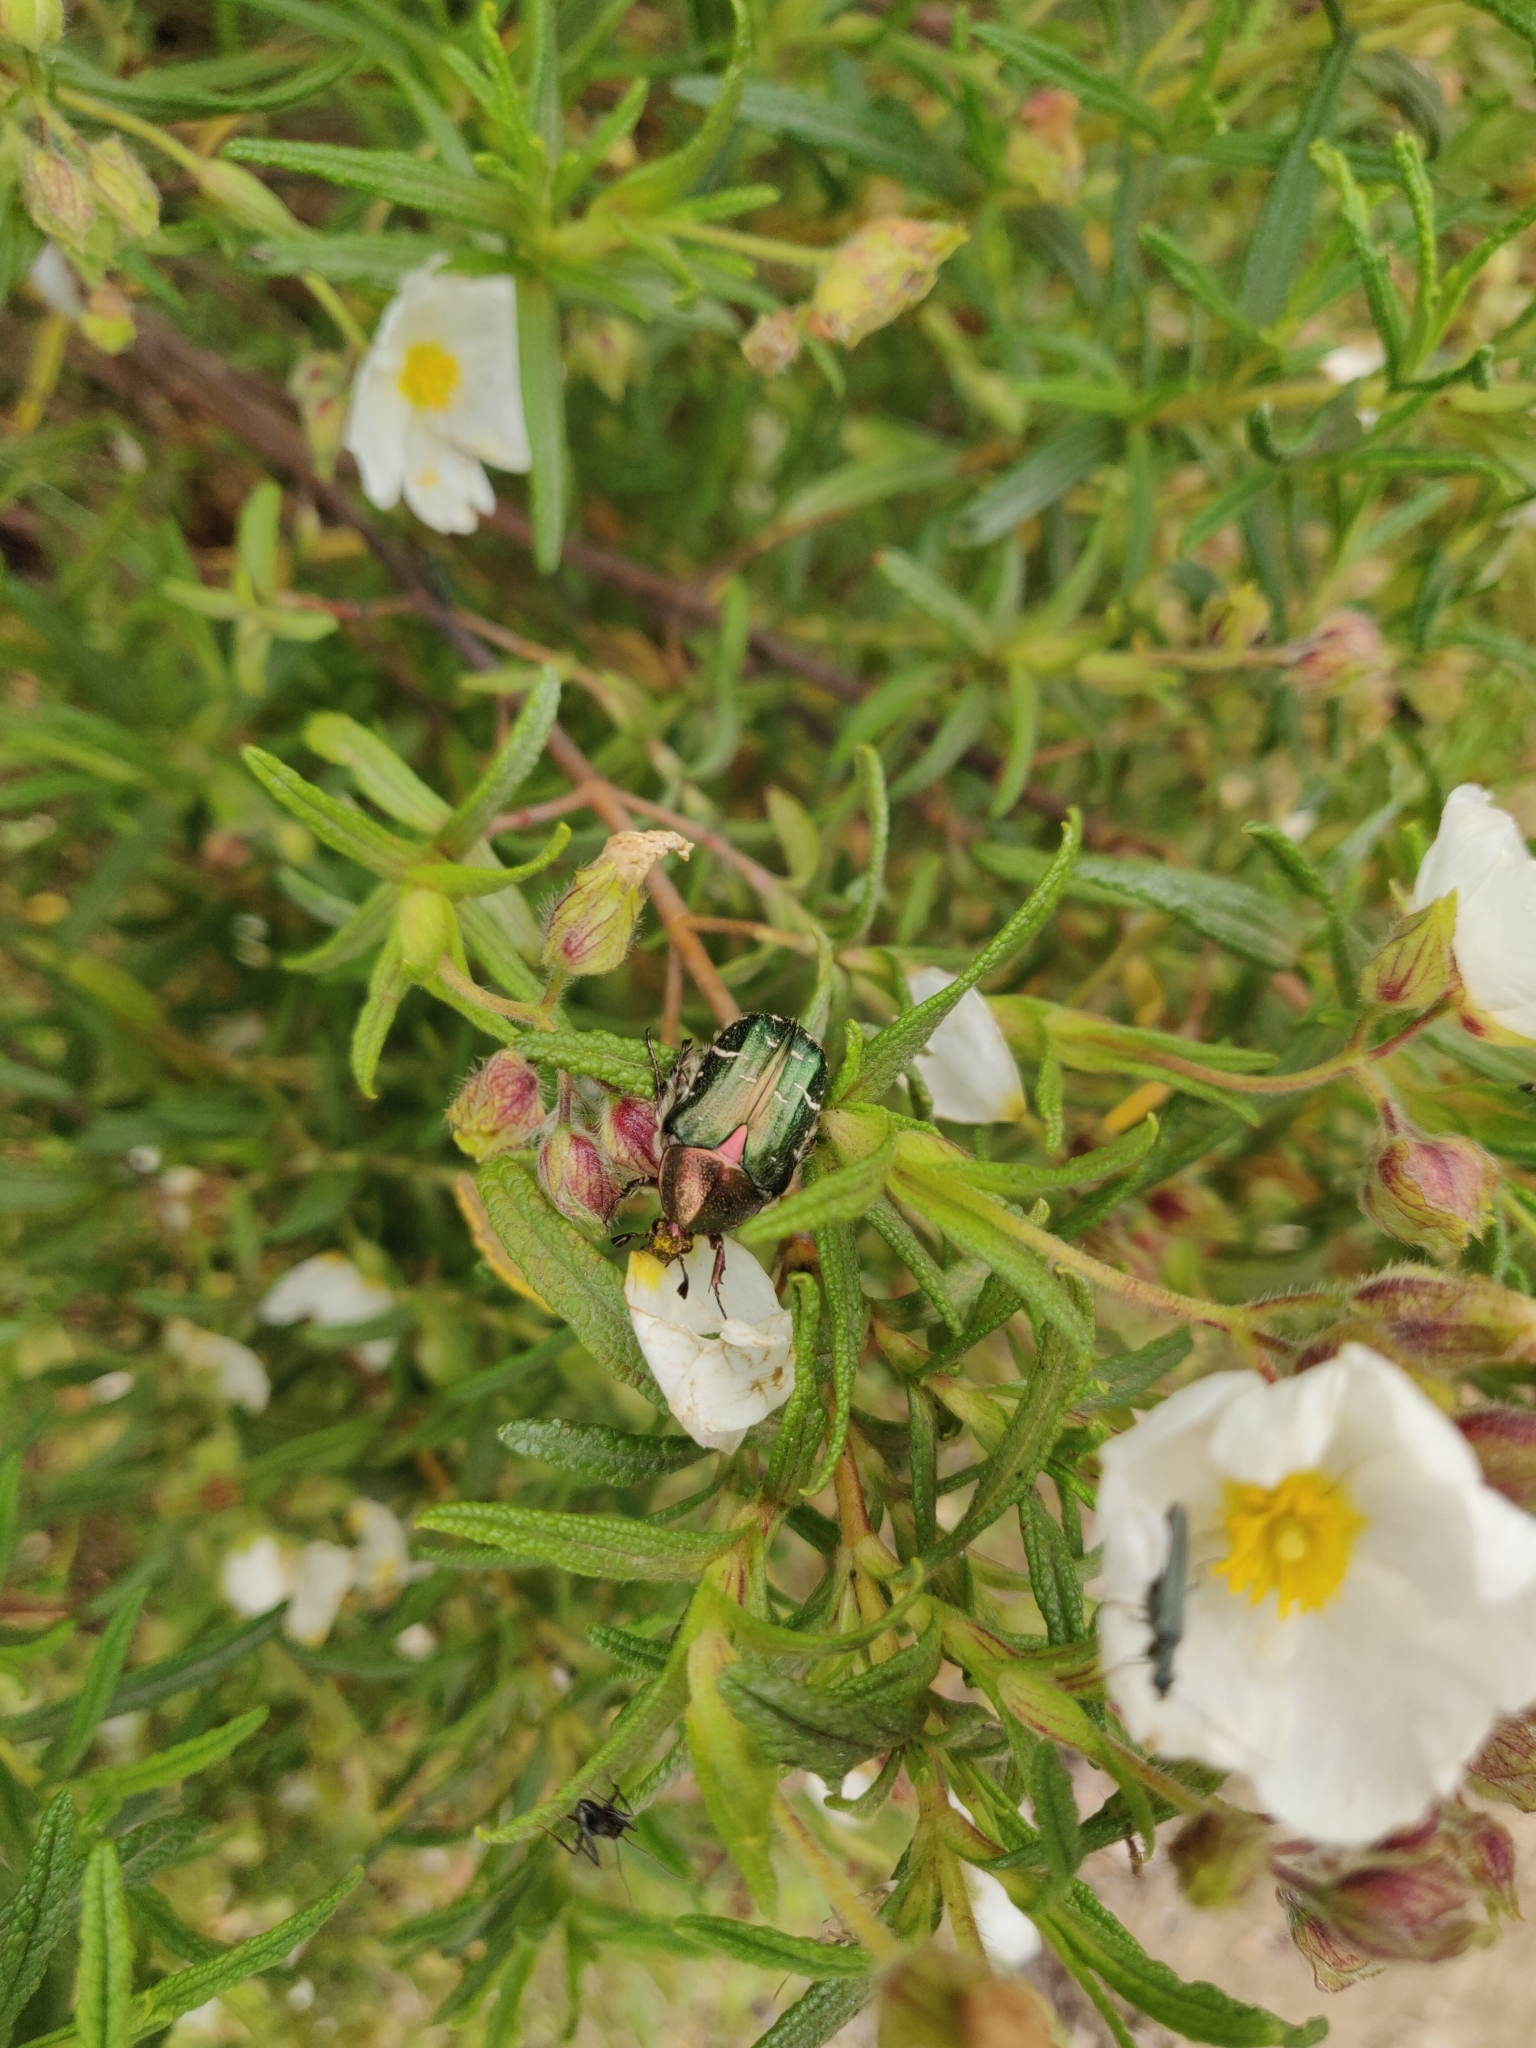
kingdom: Animalia
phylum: Arthropoda
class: Insecta
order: Coleoptera
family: Scarabaeidae
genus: Cetonia
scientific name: Cetonia carthami
